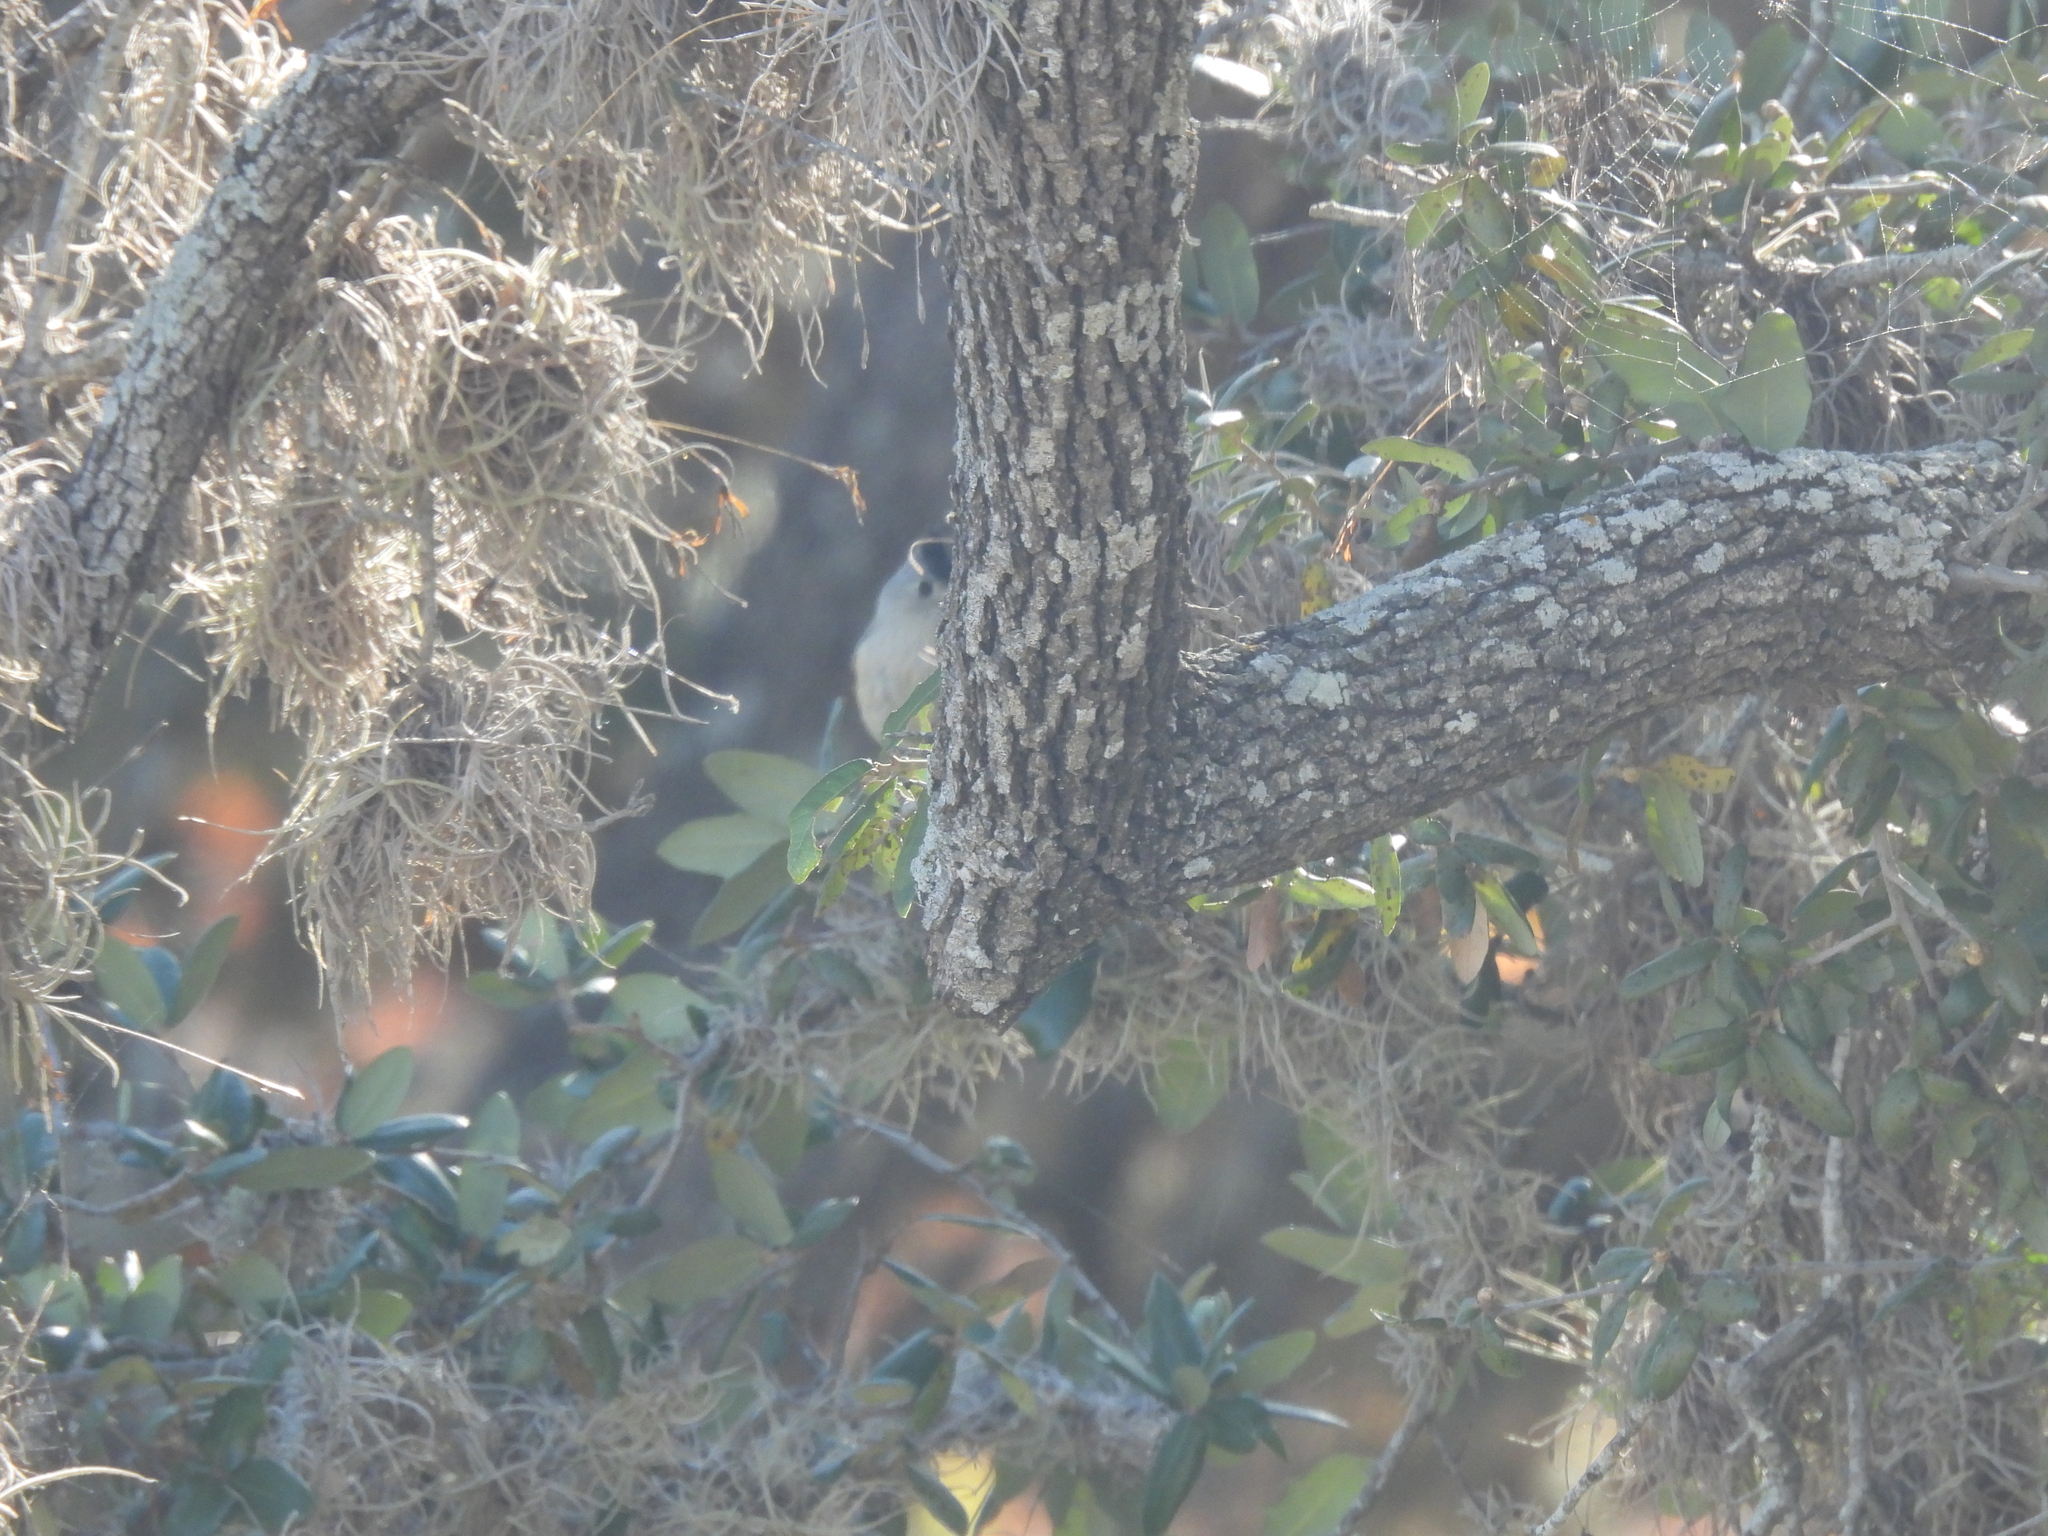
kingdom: Animalia
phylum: Chordata
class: Aves
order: Passeriformes
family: Paridae
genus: Baeolophus
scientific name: Baeolophus atricristatus
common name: Black-crested titmouse
